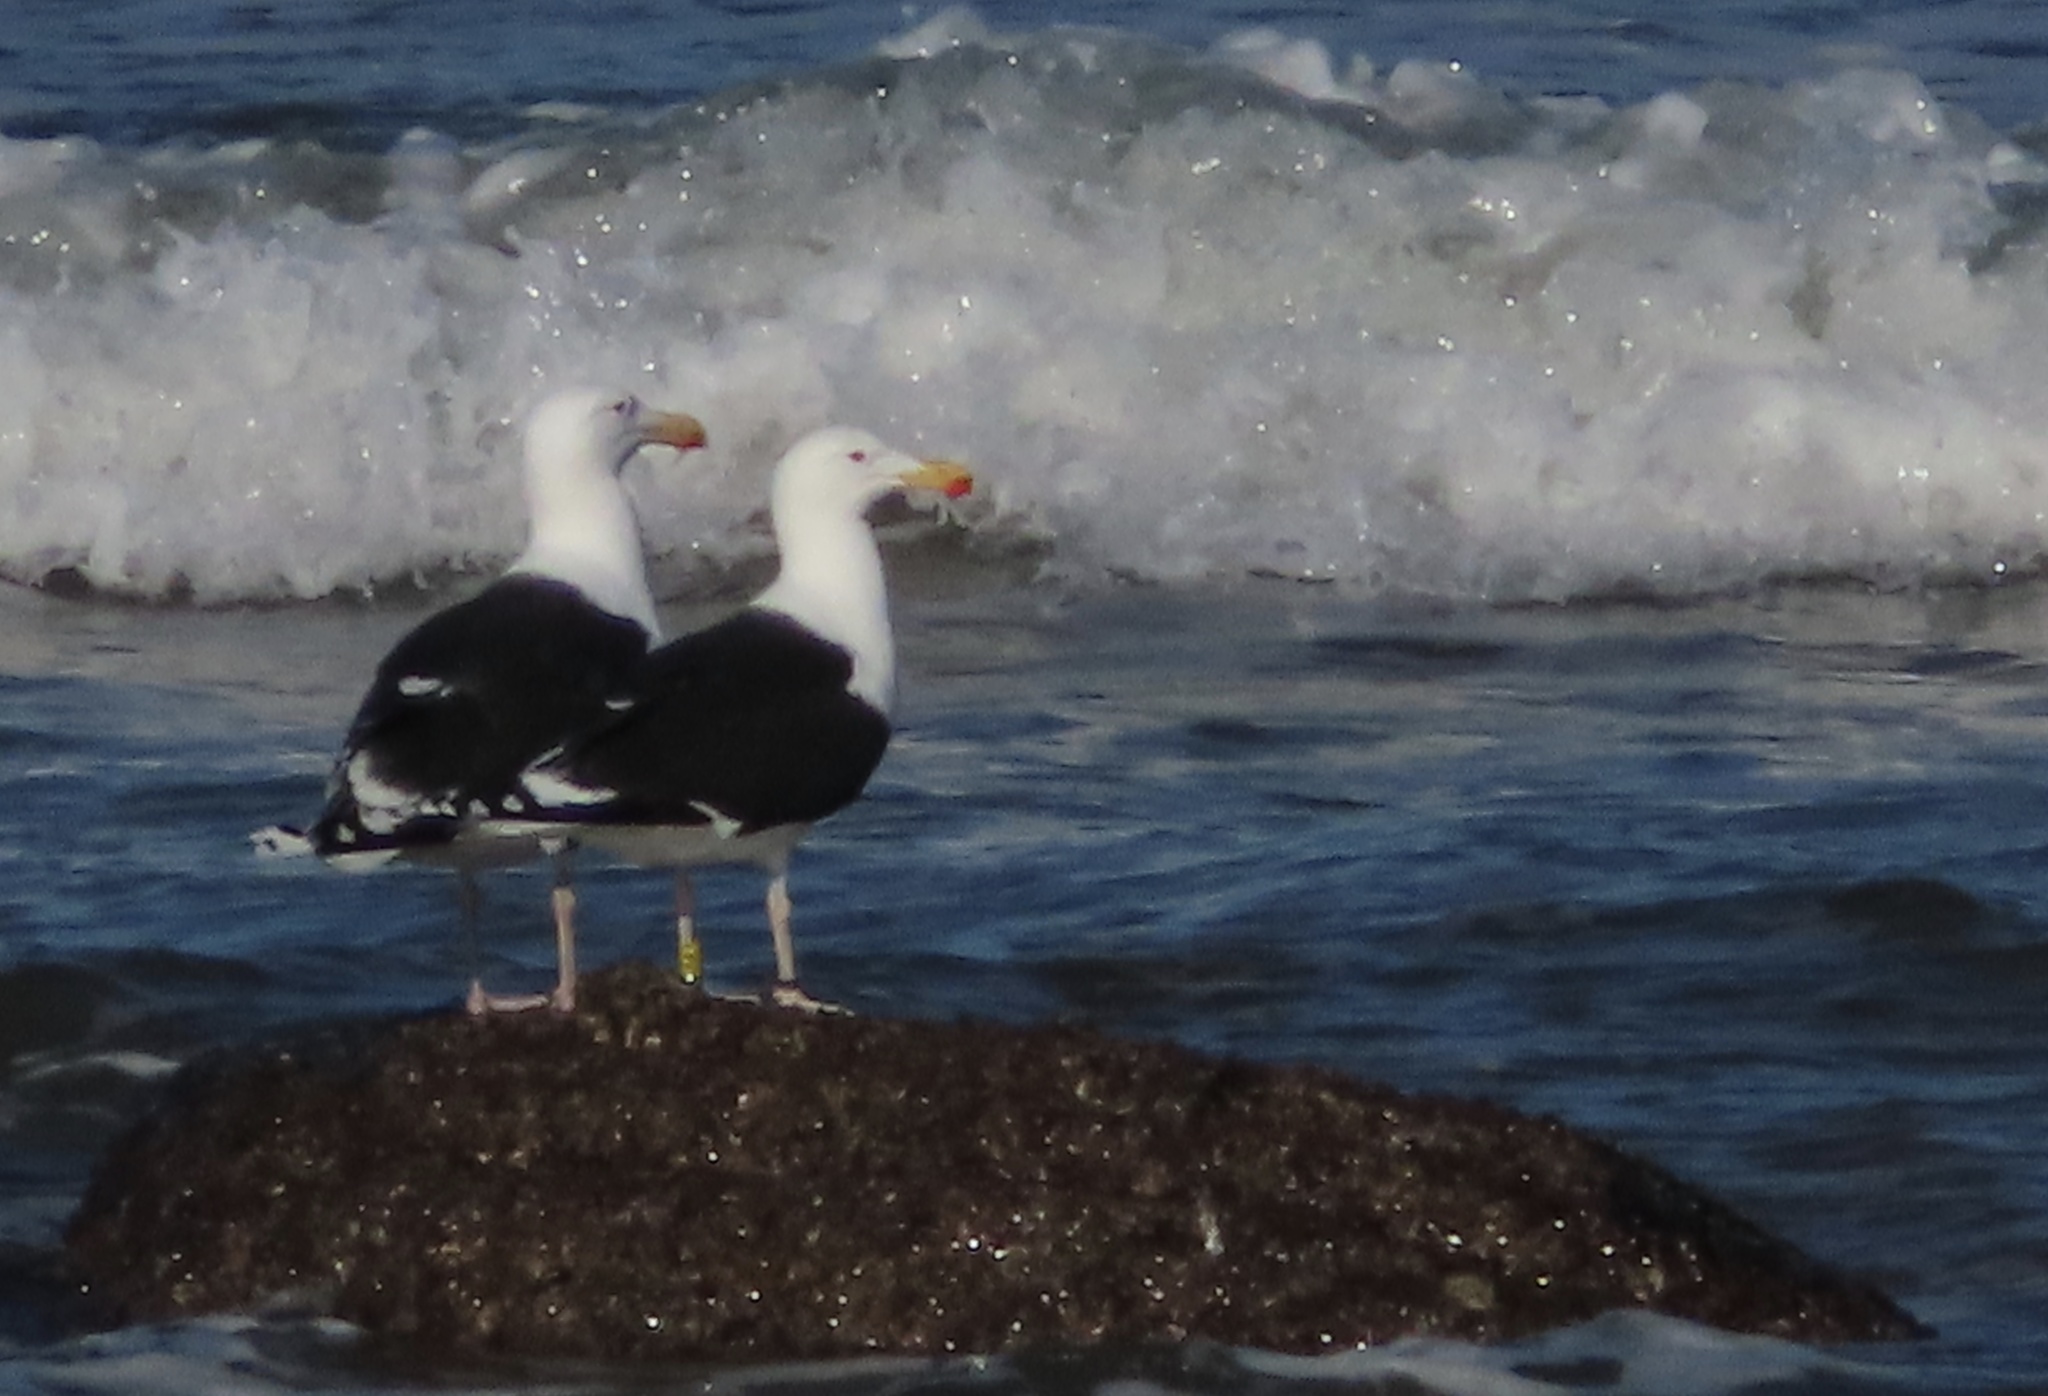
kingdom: Animalia
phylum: Chordata
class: Aves
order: Charadriiformes
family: Laridae
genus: Larus
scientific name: Larus marinus
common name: Great black-backed gull
